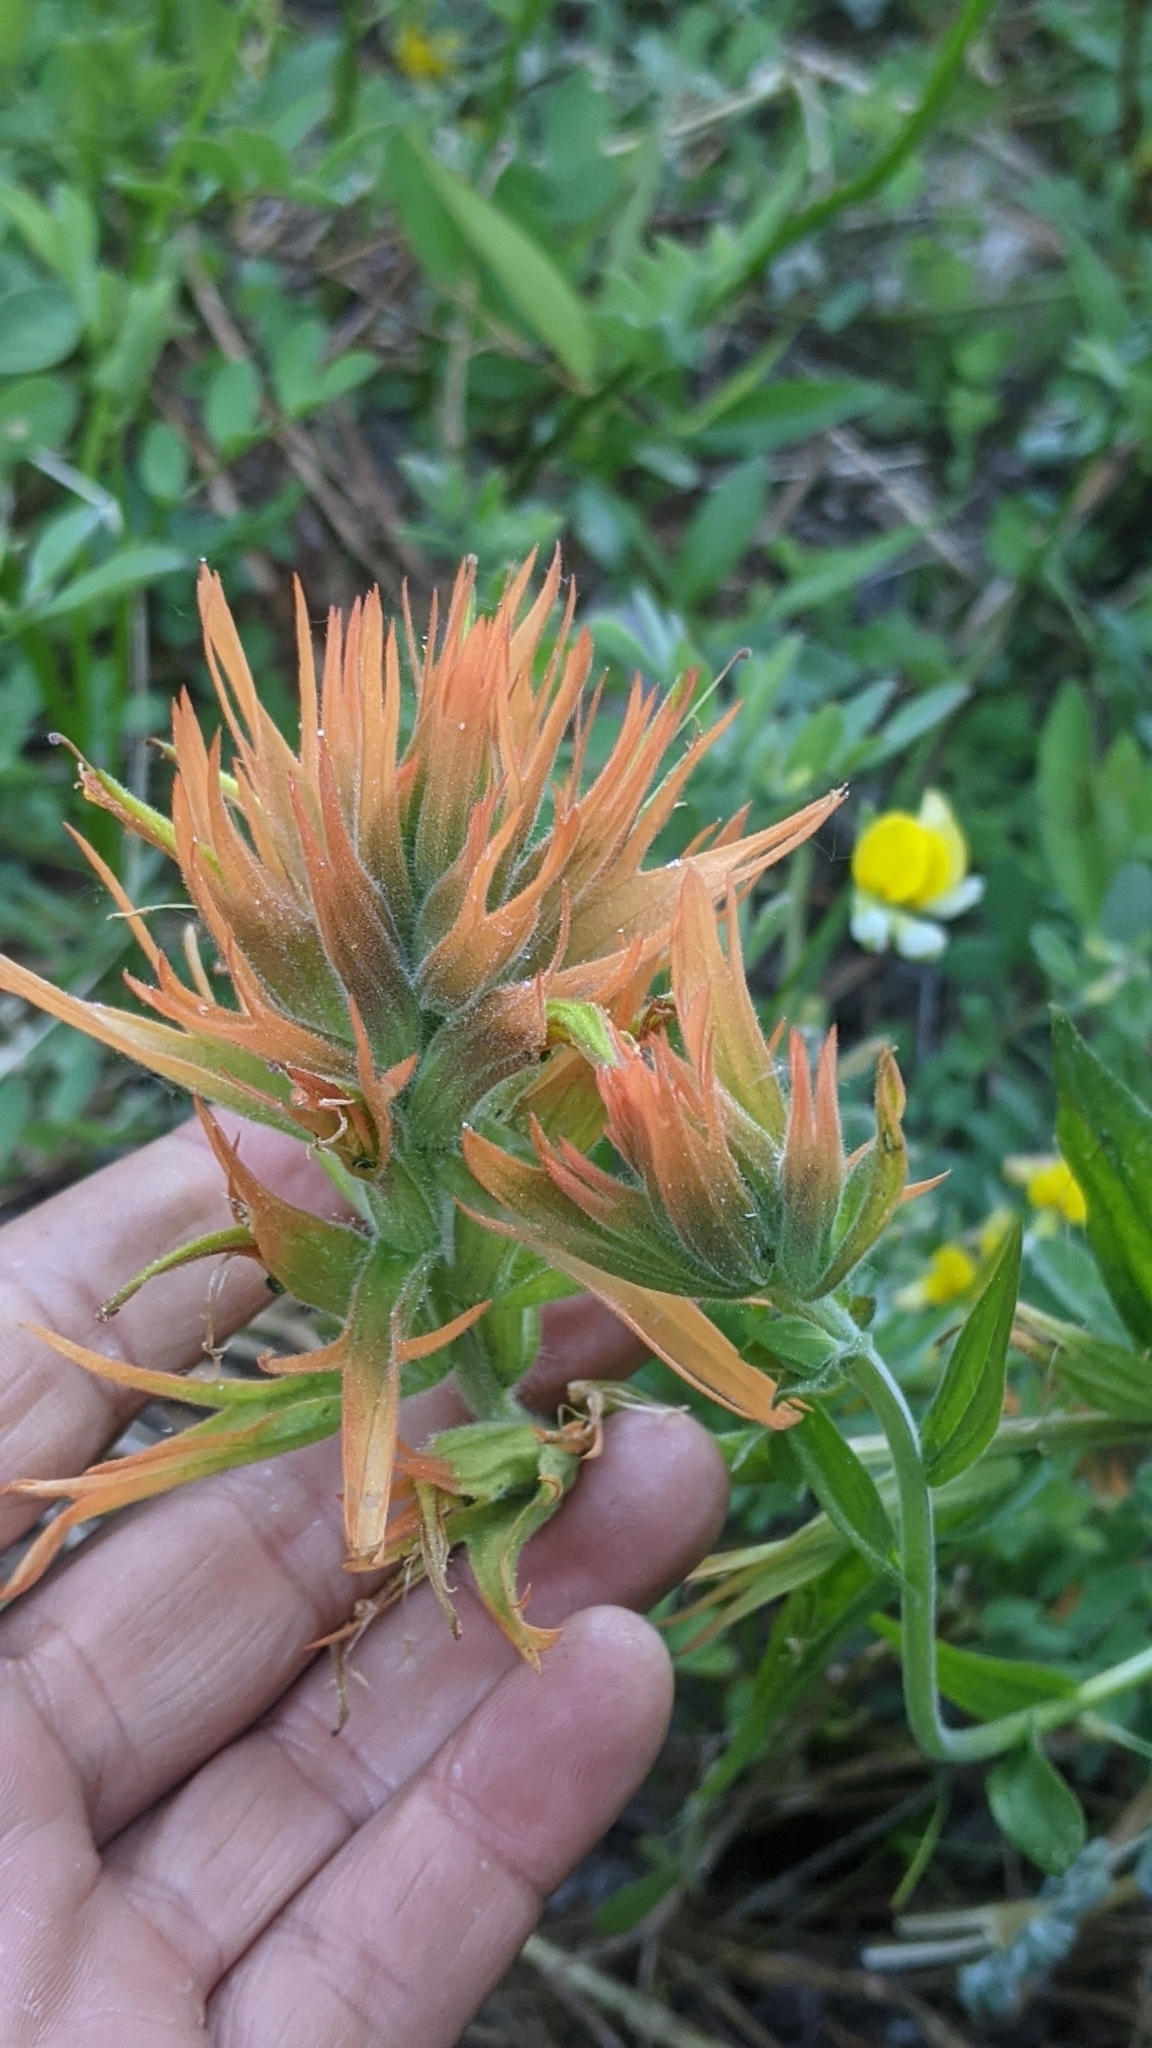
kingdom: Plantae
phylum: Tracheophyta
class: Magnoliopsida
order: Lamiales
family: Orobanchaceae
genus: Castilleja
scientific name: Castilleja miniata
